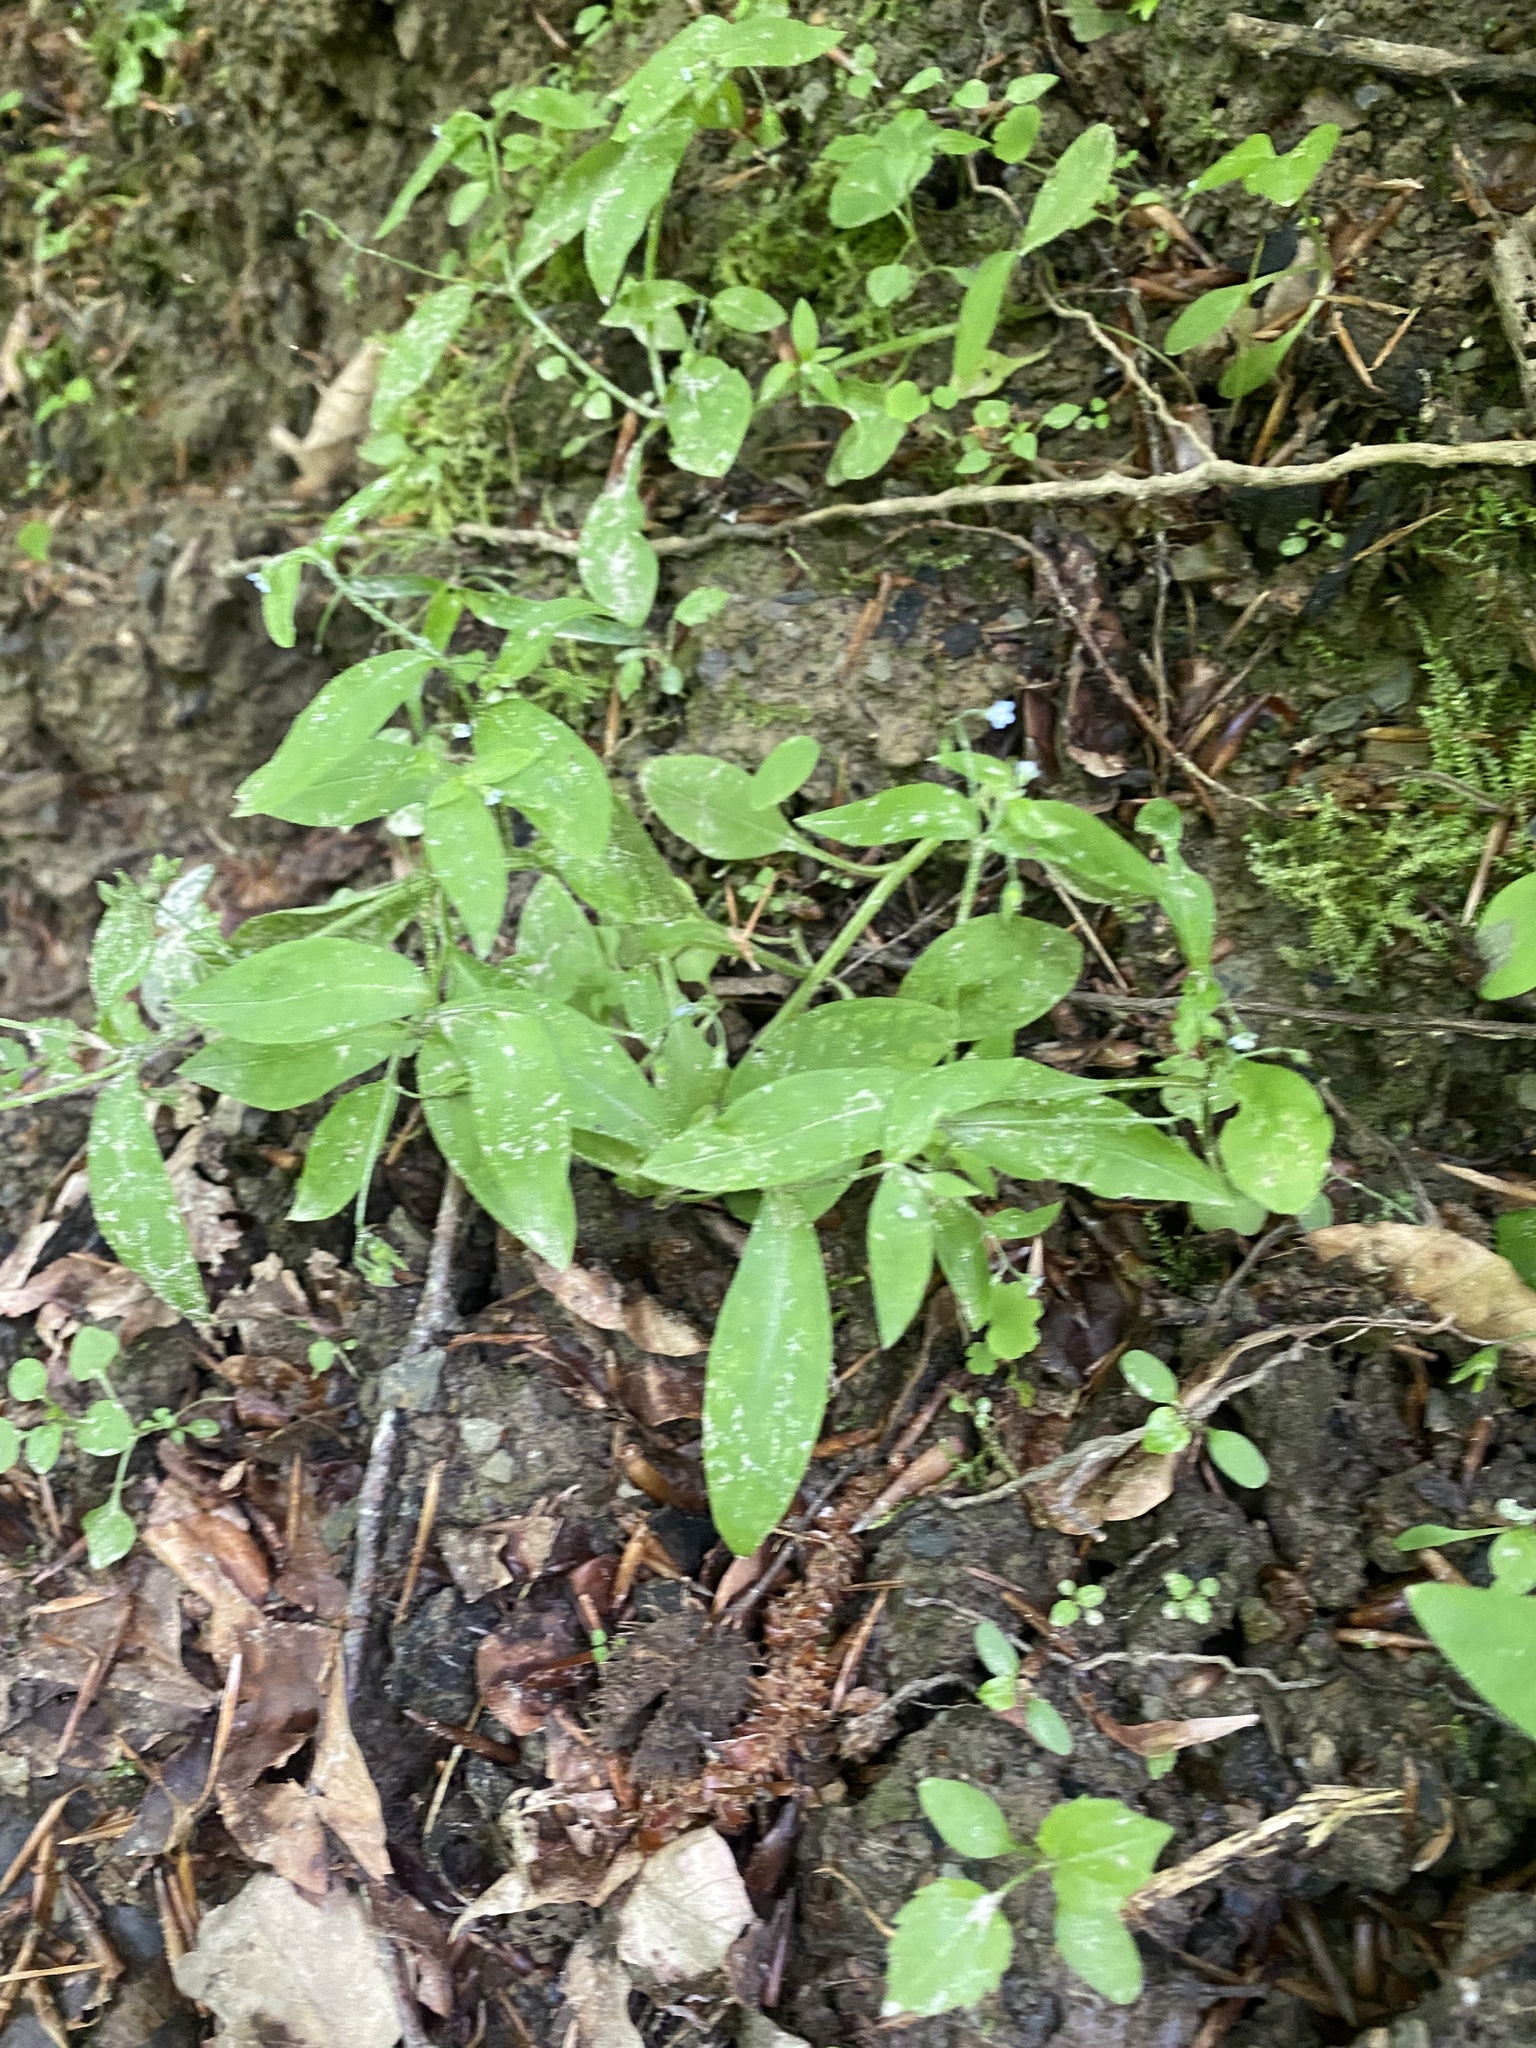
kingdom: Plantae
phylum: Tracheophyta
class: Magnoliopsida
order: Boraginales
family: Boraginaceae
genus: Myosotis
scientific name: Myosotis sparsiflora
